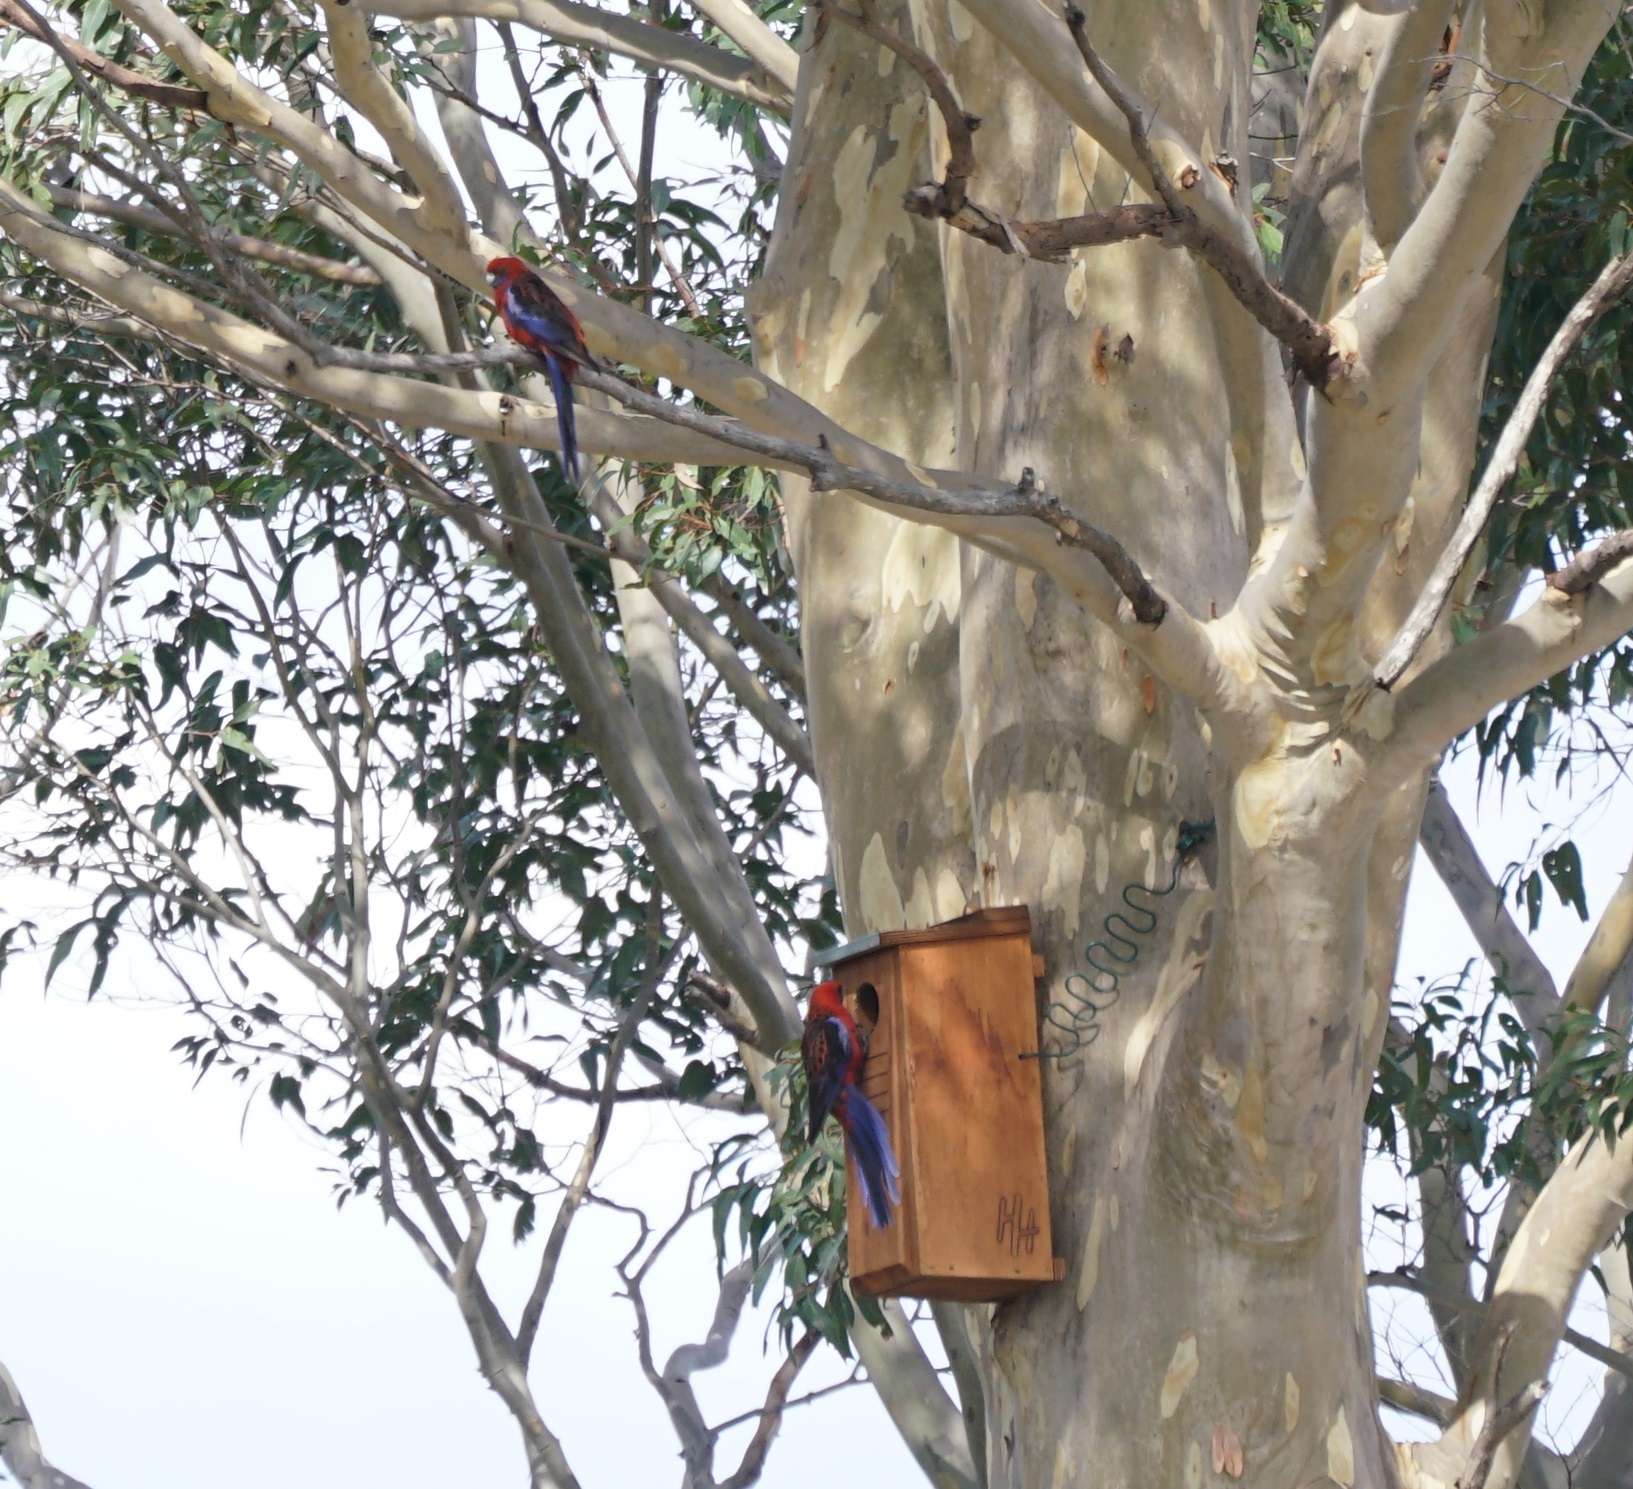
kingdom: Animalia
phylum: Chordata
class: Aves
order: Psittaciformes
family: Psittacidae
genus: Platycercus
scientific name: Platycercus elegans
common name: Crimson rosella
